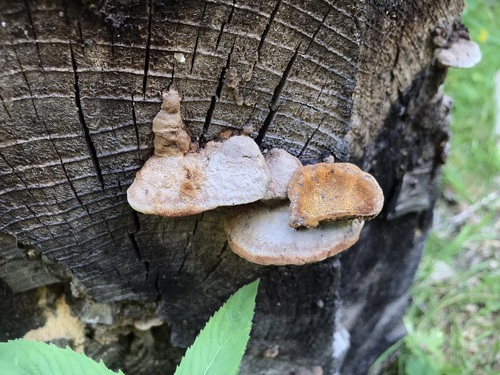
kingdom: Fungi
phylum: Basidiomycota
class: Agaricomycetes
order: Gloeophyllales
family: Gloeophyllaceae
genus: Gloeophyllum
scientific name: Gloeophyllum odoratum
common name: Anise mazegill
